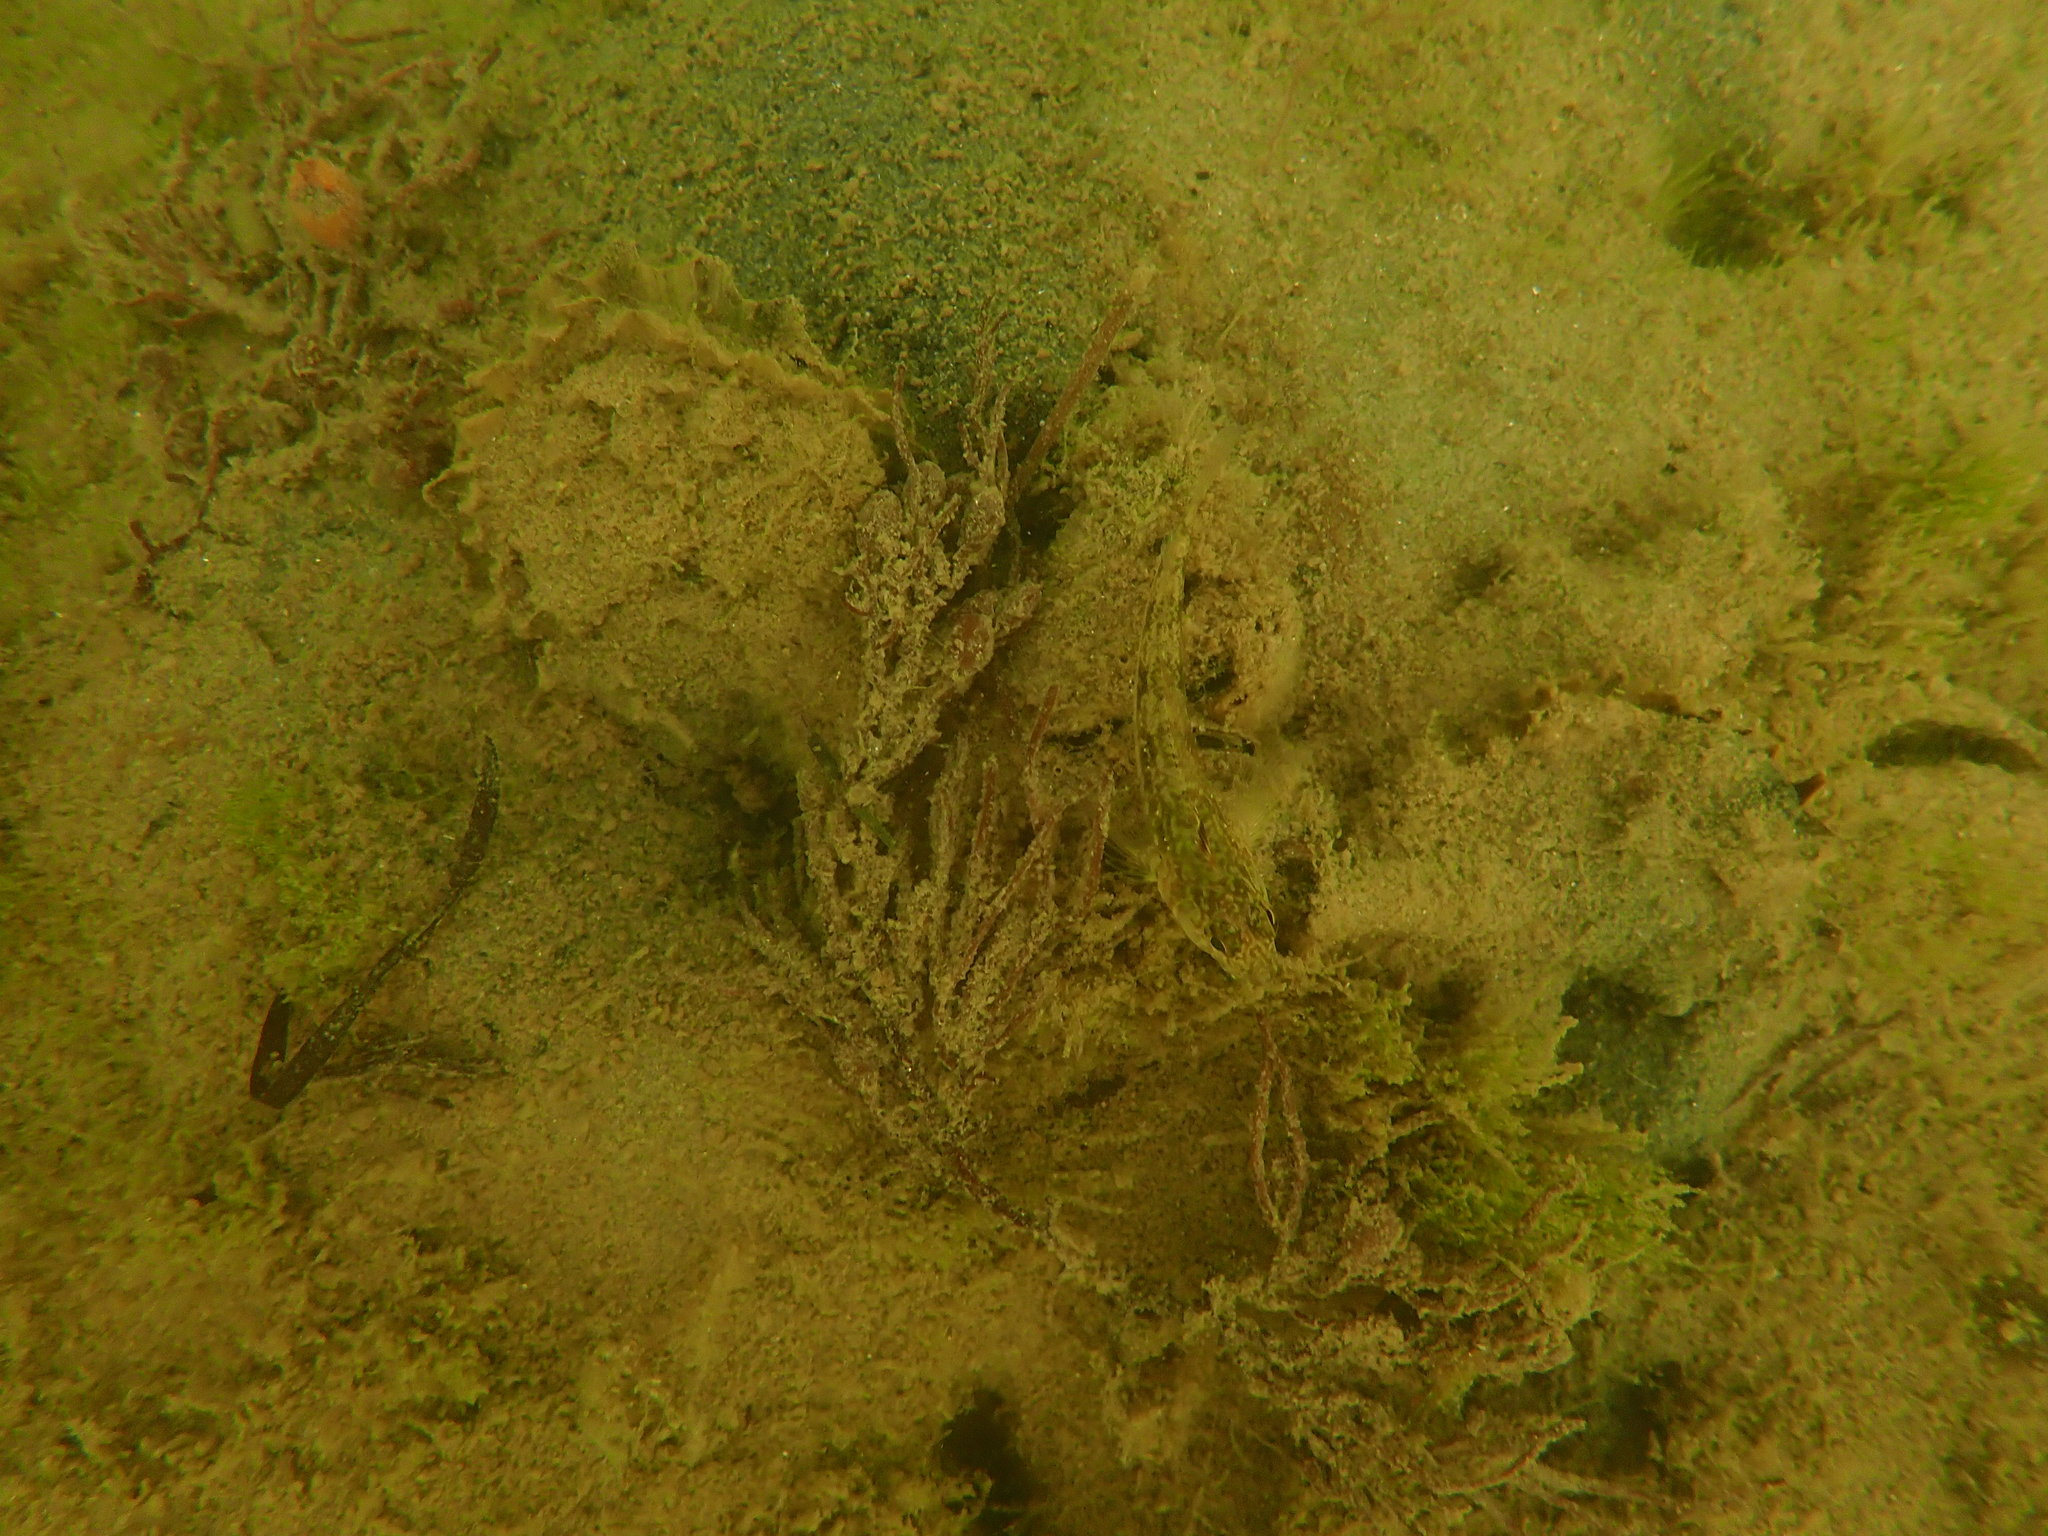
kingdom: Animalia
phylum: Mollusca
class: Bivalvia
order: Ostreida
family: Ostreidae
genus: Magallana
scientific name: Magallana gigas
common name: Pacific oyster
